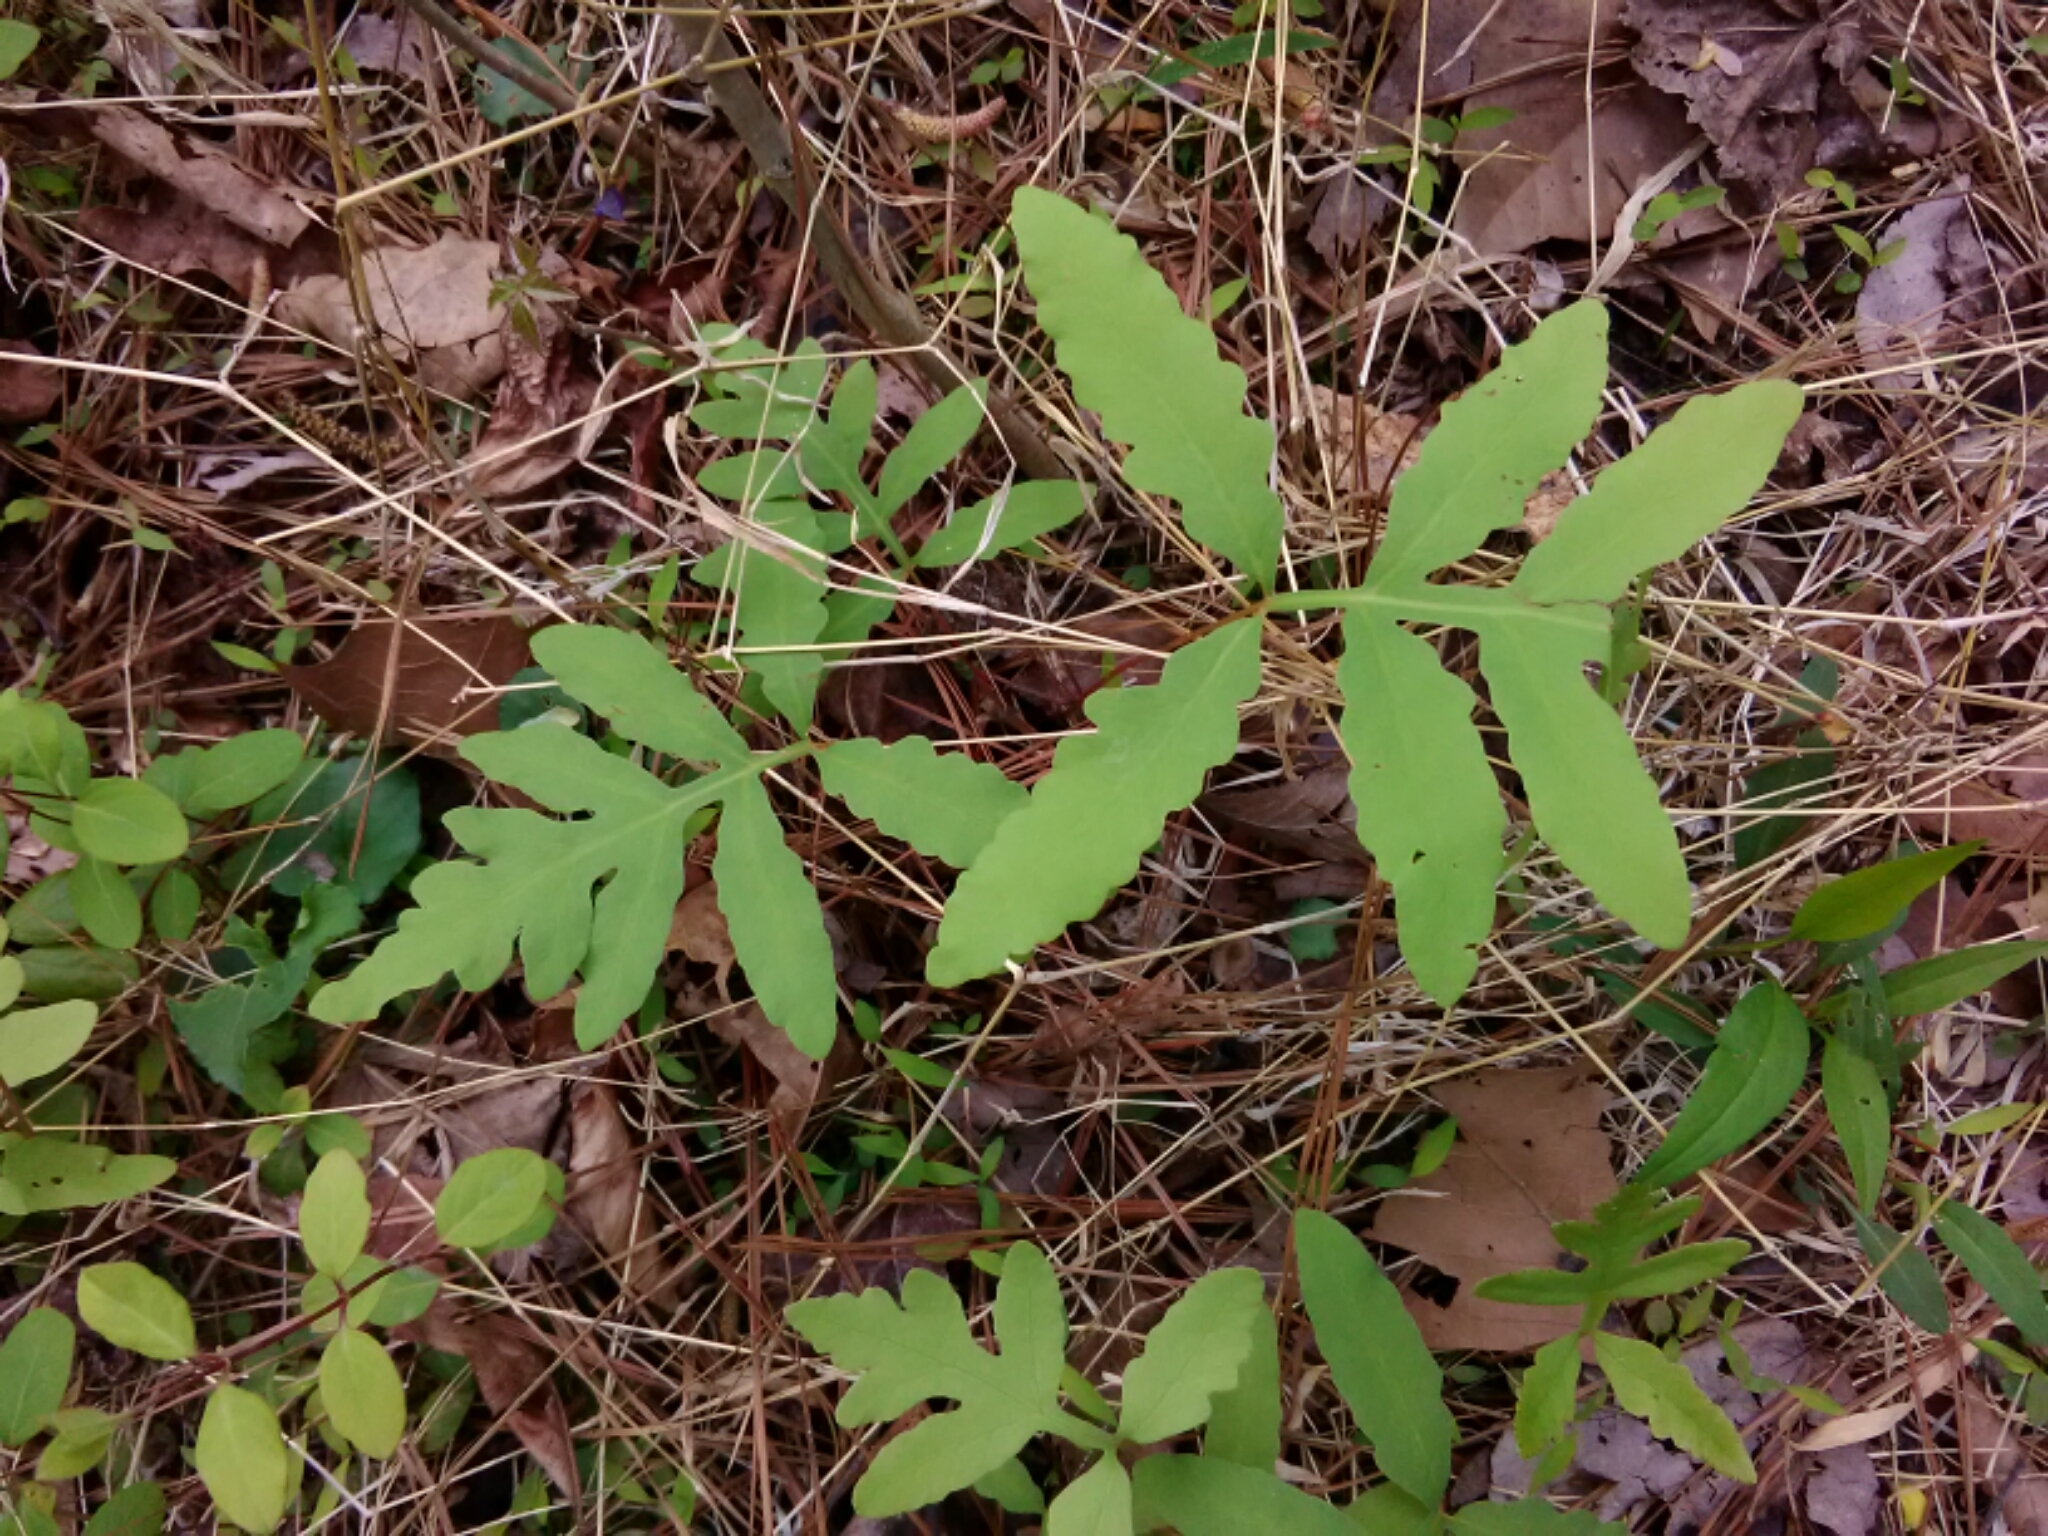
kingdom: Plantae
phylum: Tracheophyta
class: Polypodiopsida
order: Polypodiales
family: Onocleaceae
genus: Onoclea
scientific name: Onoclea sensibilis
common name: Sensitive fern
